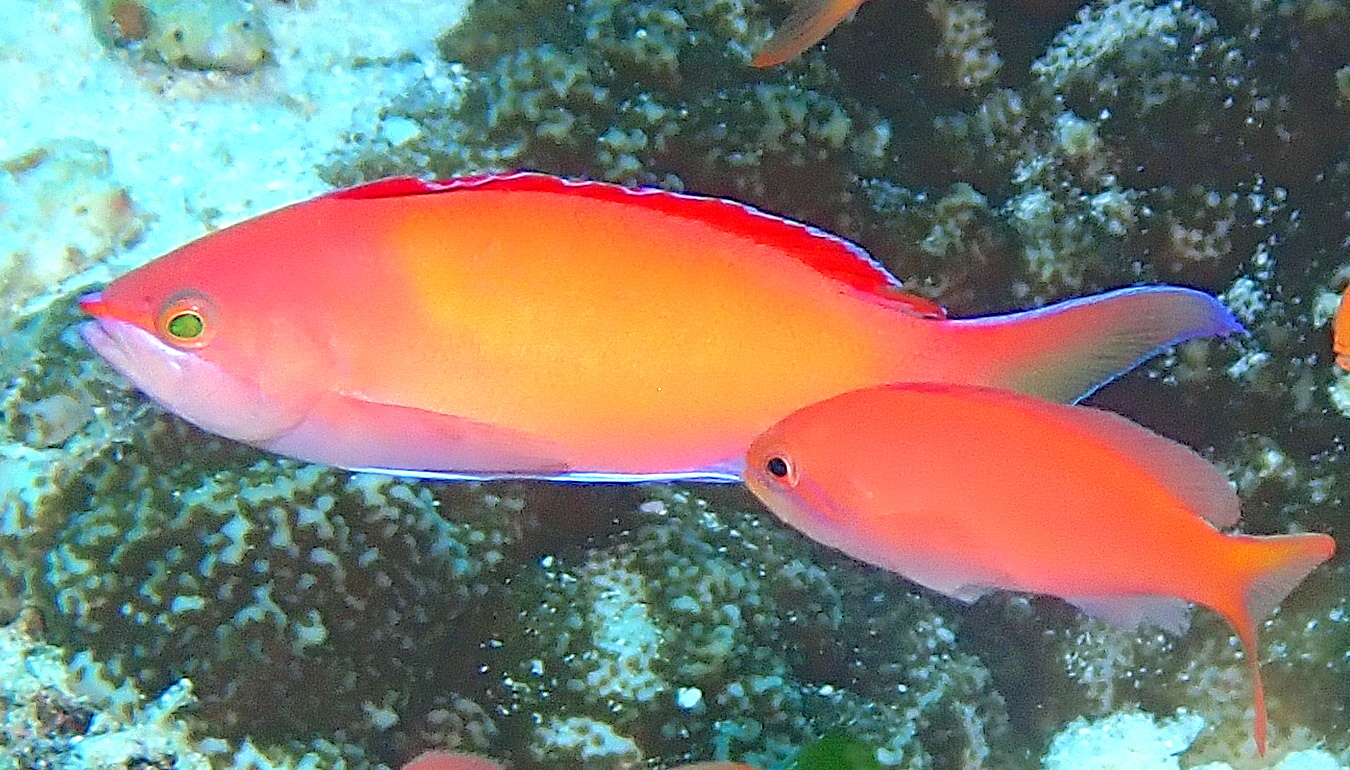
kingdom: Animalia
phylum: Chordata
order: Perciformes
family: Serranidae
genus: Nemanthias
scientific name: Nemanthias
